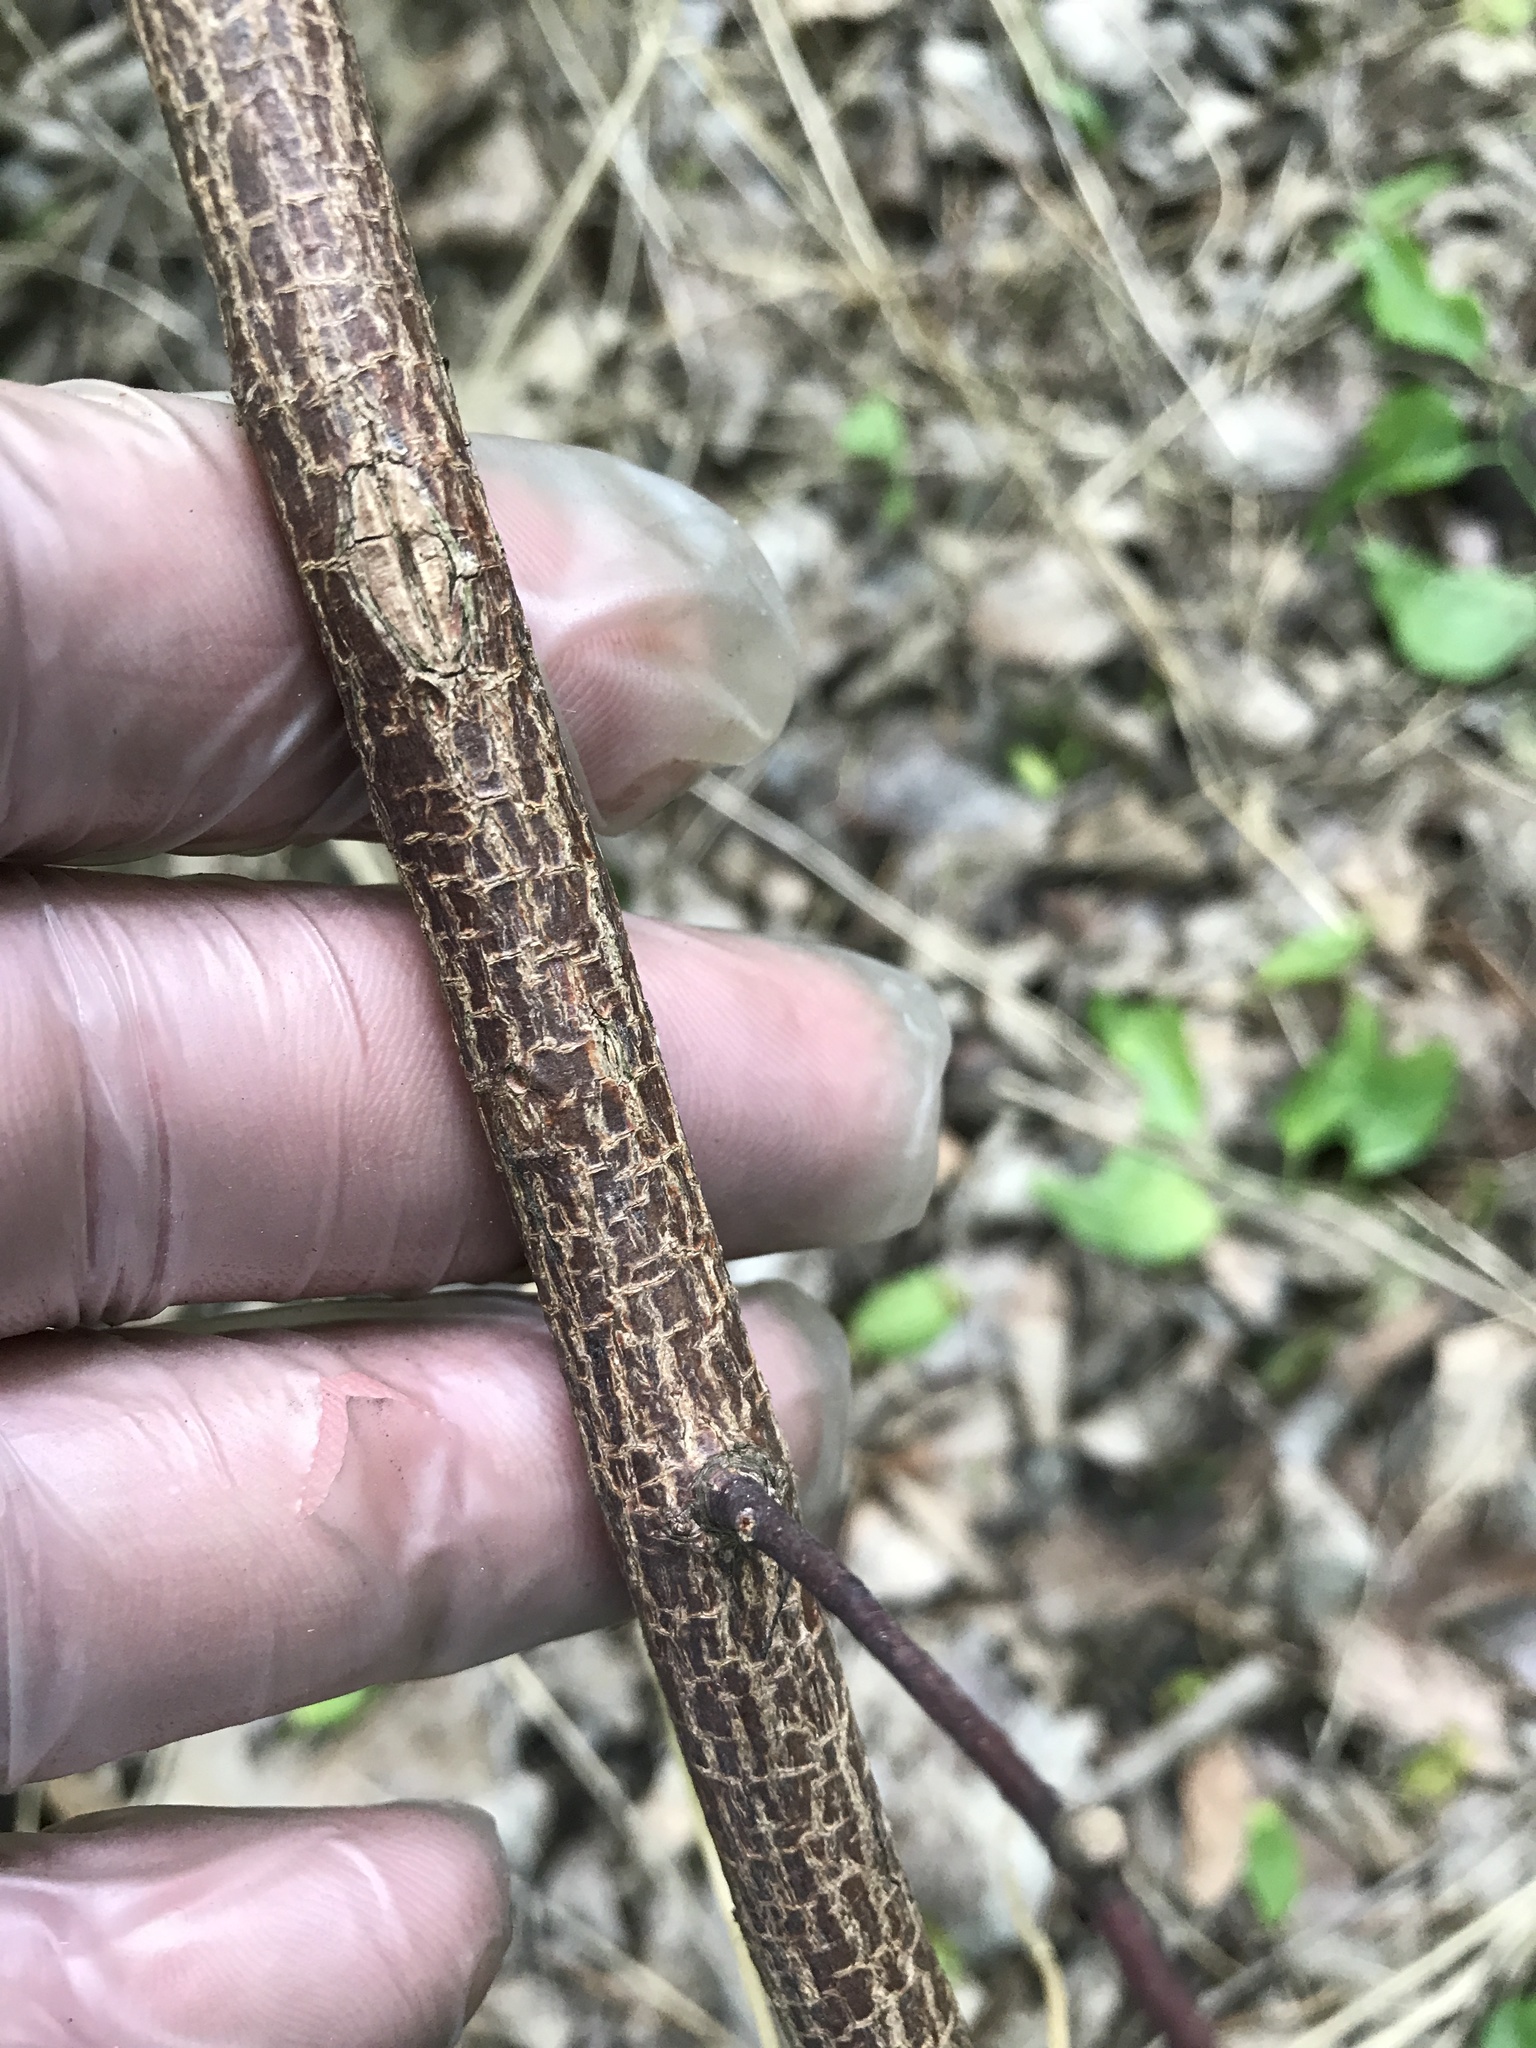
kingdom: Plantae
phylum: Tracheophyta
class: Magnoliopsida
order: Cornales
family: Cornaceae
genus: Cornus
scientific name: Cornus drummondii
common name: Rough-leaf dogwood
